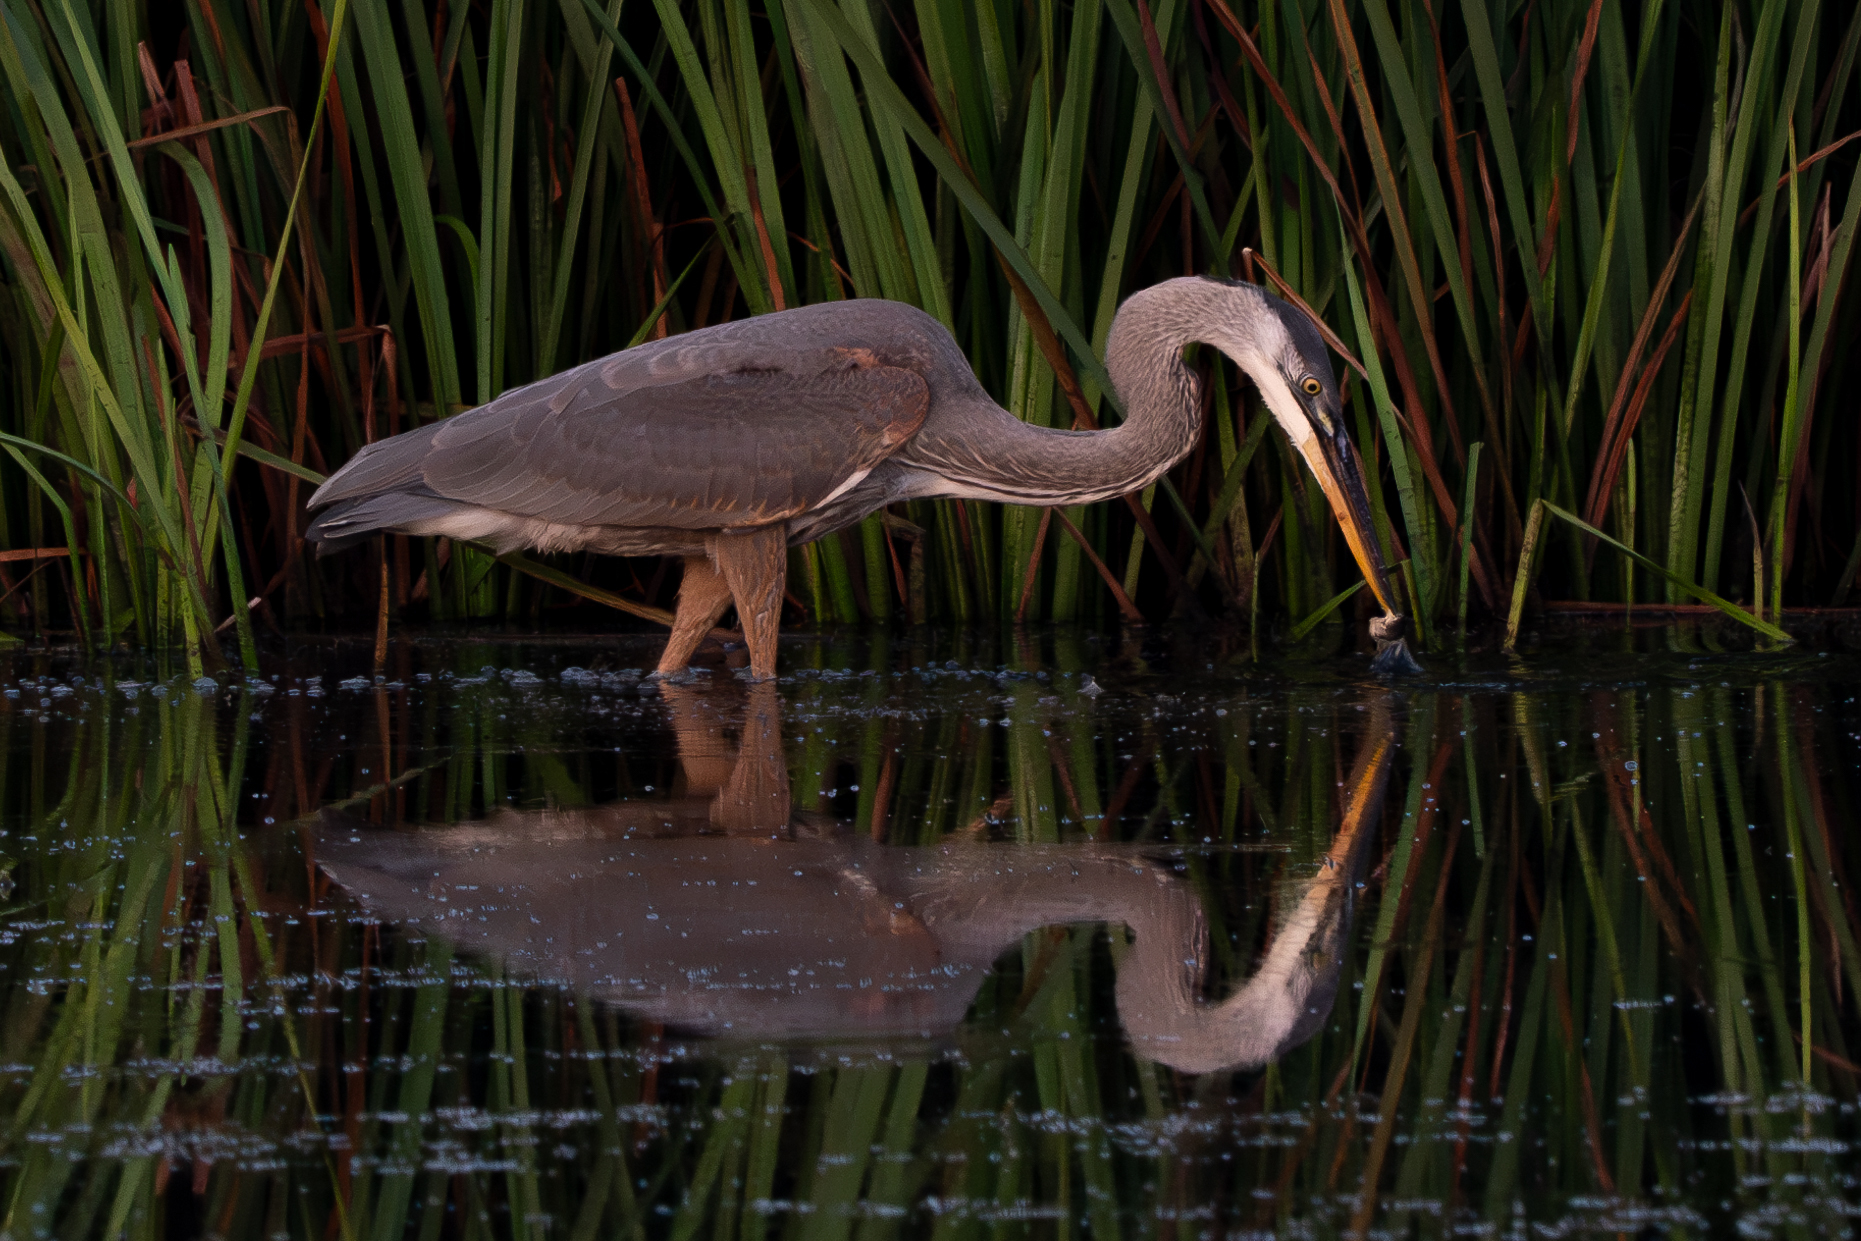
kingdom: Animalia
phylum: Chordata
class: Aves
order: Pelecaniformes
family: Ardeidae
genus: Ardea
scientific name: Ardea herodias
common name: Great blue heron
